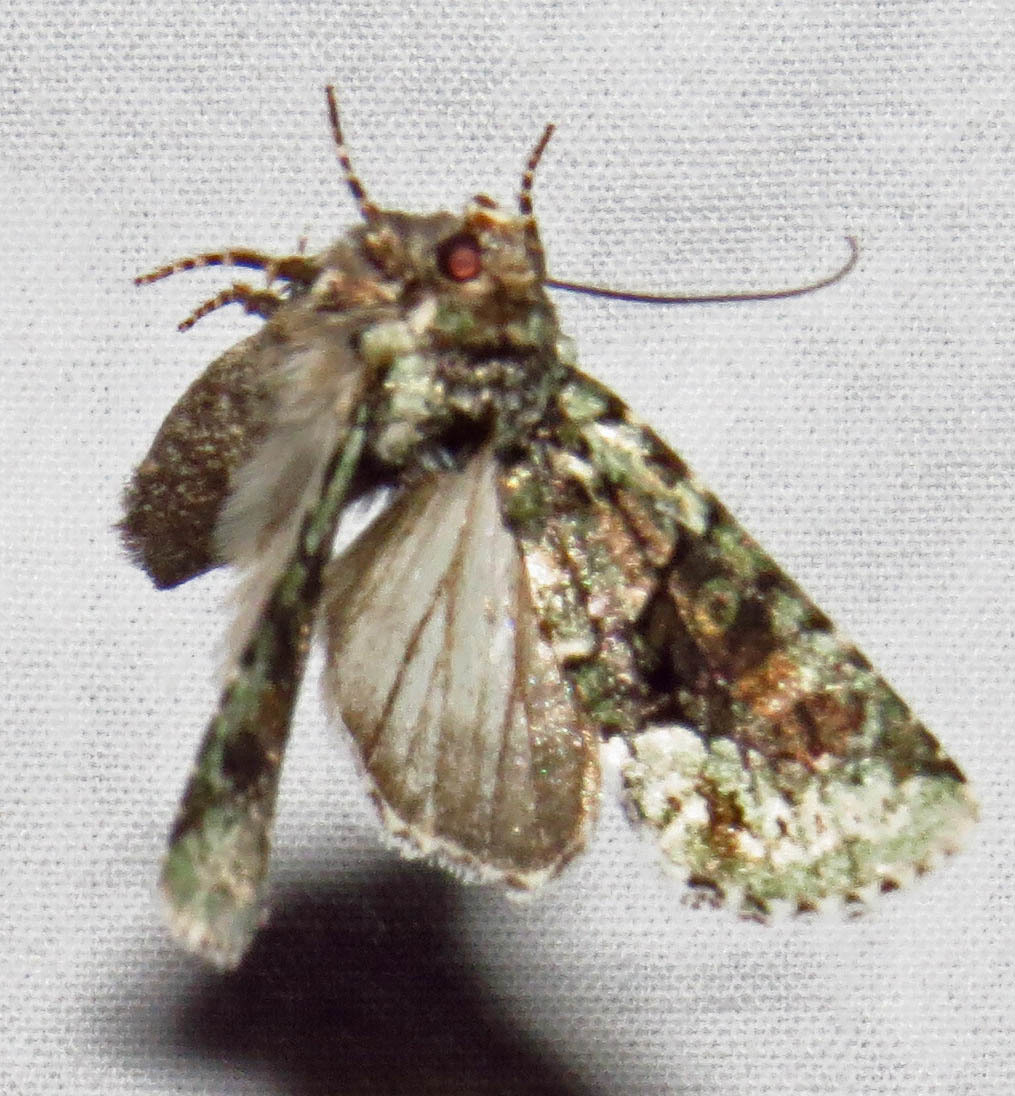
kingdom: Animalia
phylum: Arthropoda
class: Insecta
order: Lepidoptera
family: Noctuidae
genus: Lacinipolia
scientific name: Lacinipolia explicata
